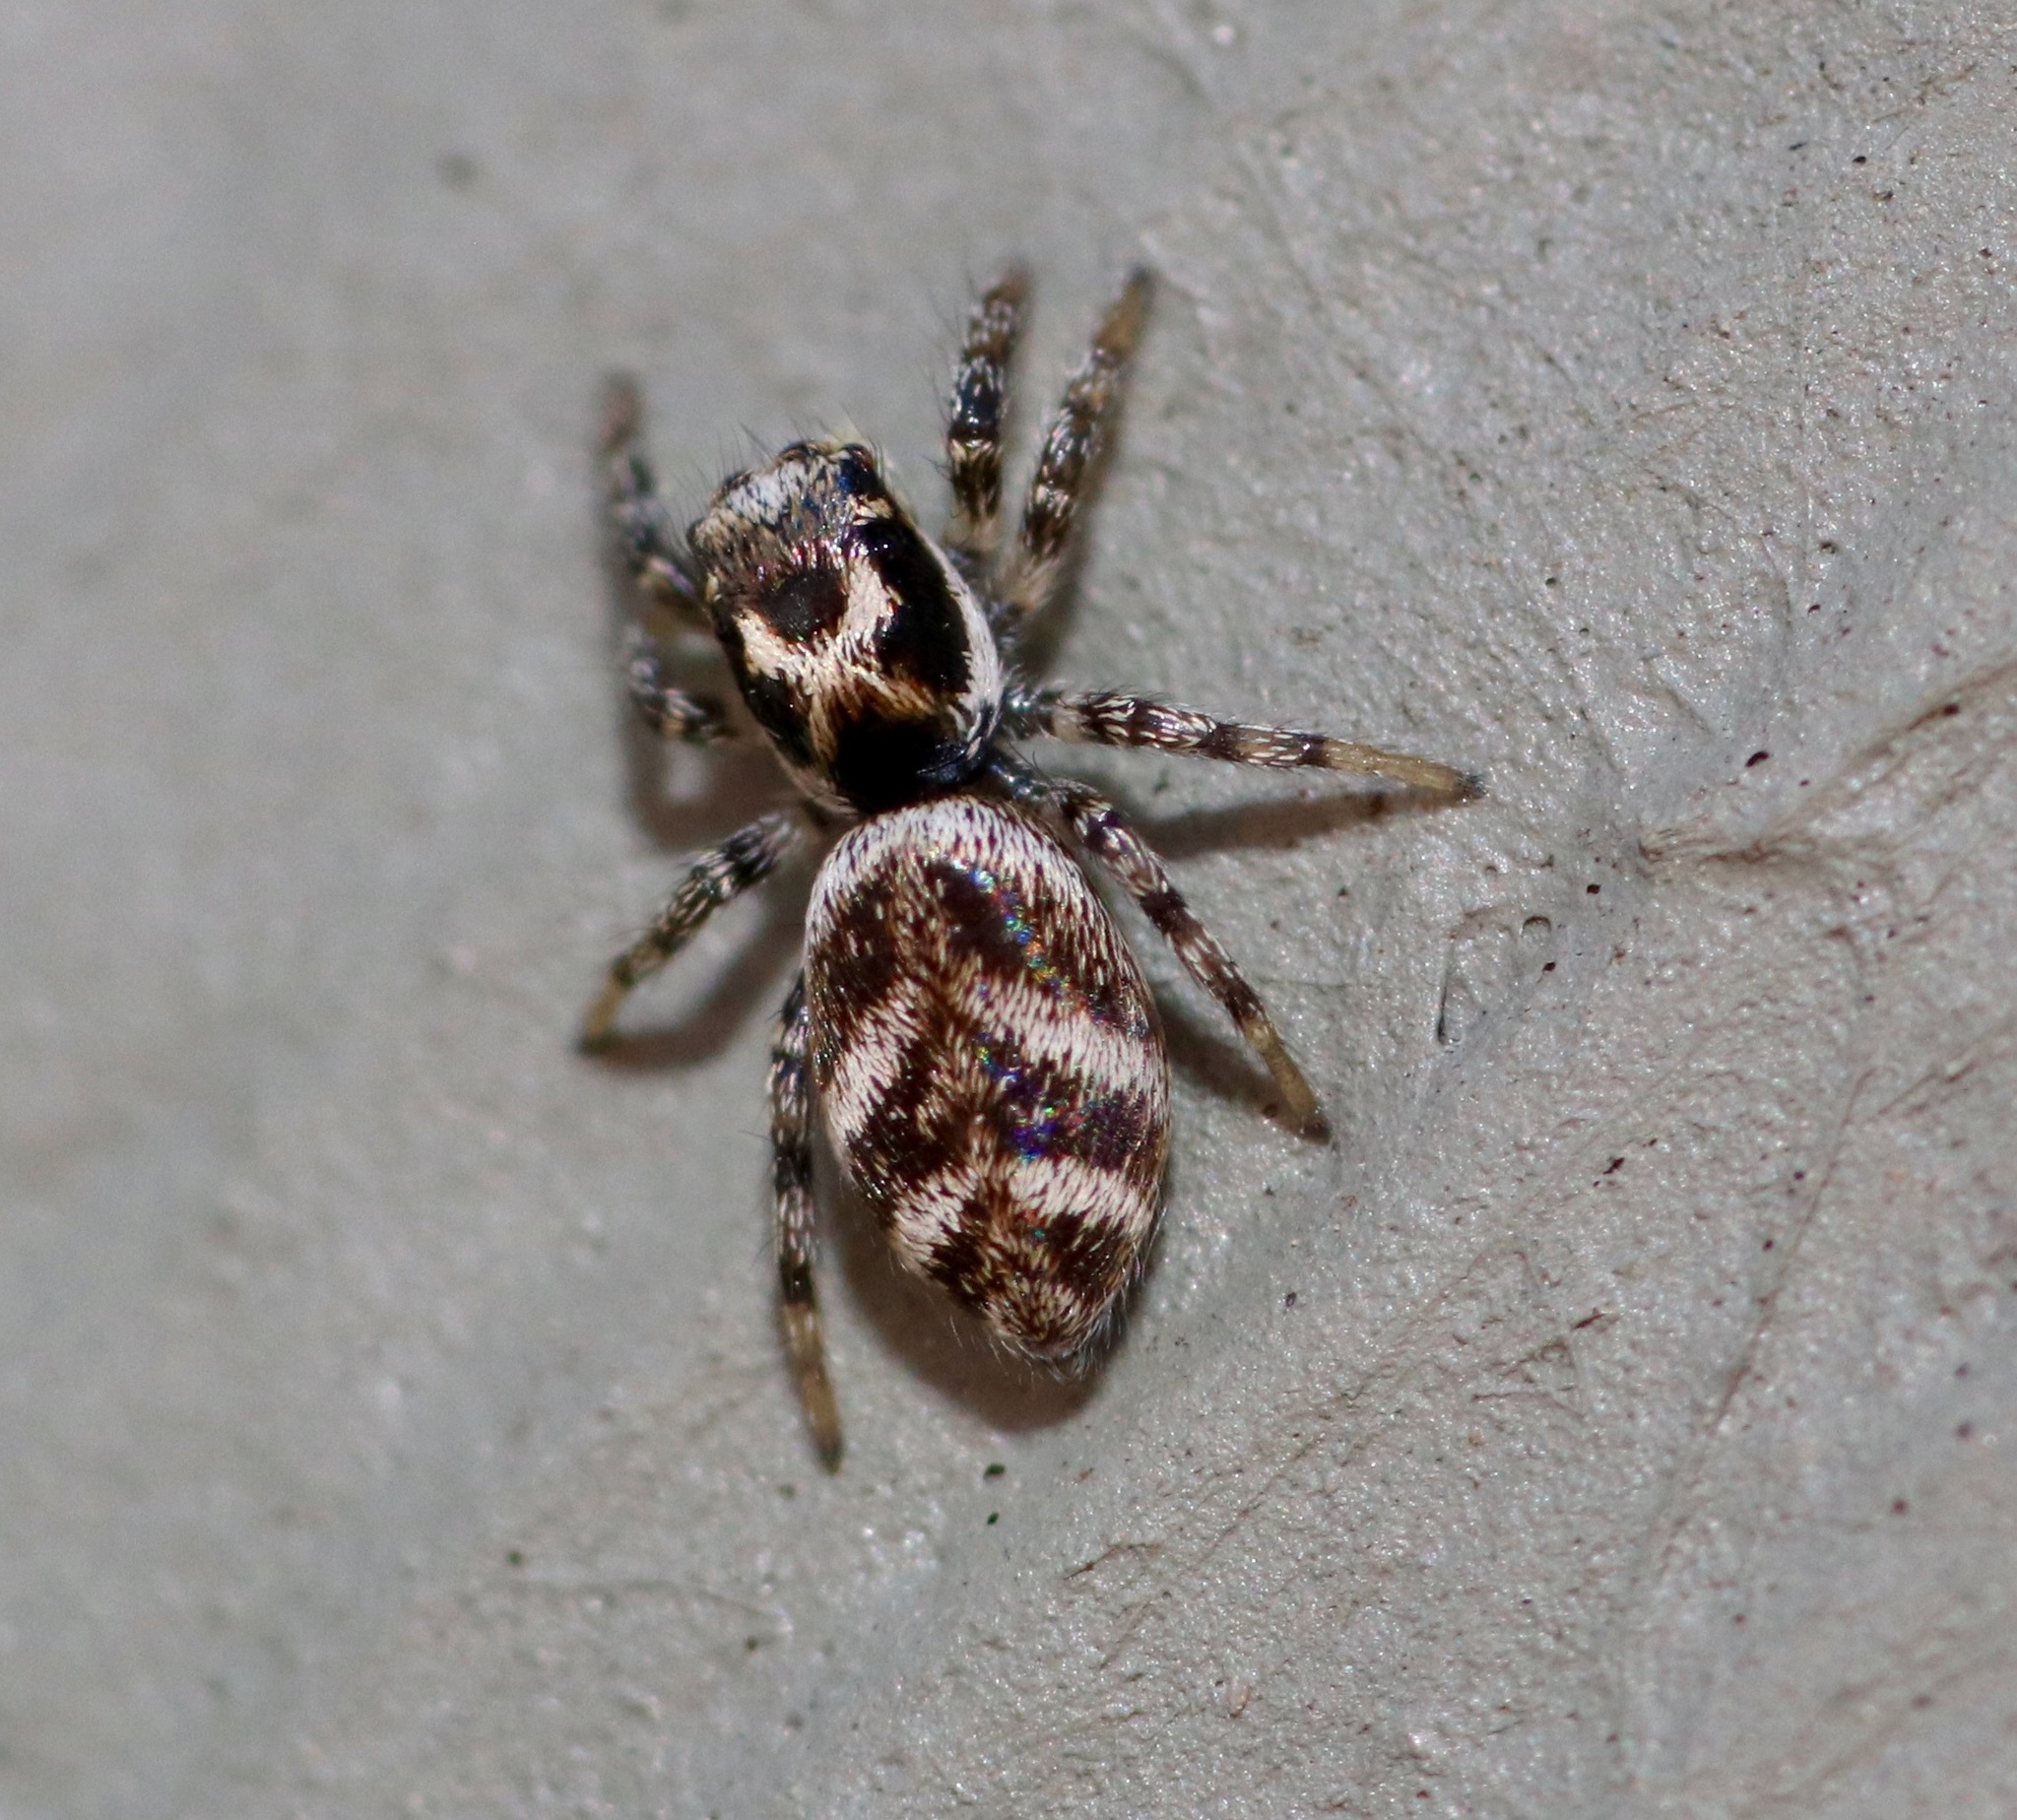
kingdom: Animalia
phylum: Arthropoda
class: Arachnida
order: Araneae
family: Salticidae
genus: Salticus
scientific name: Salticus scenicus
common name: Zebra jumper
